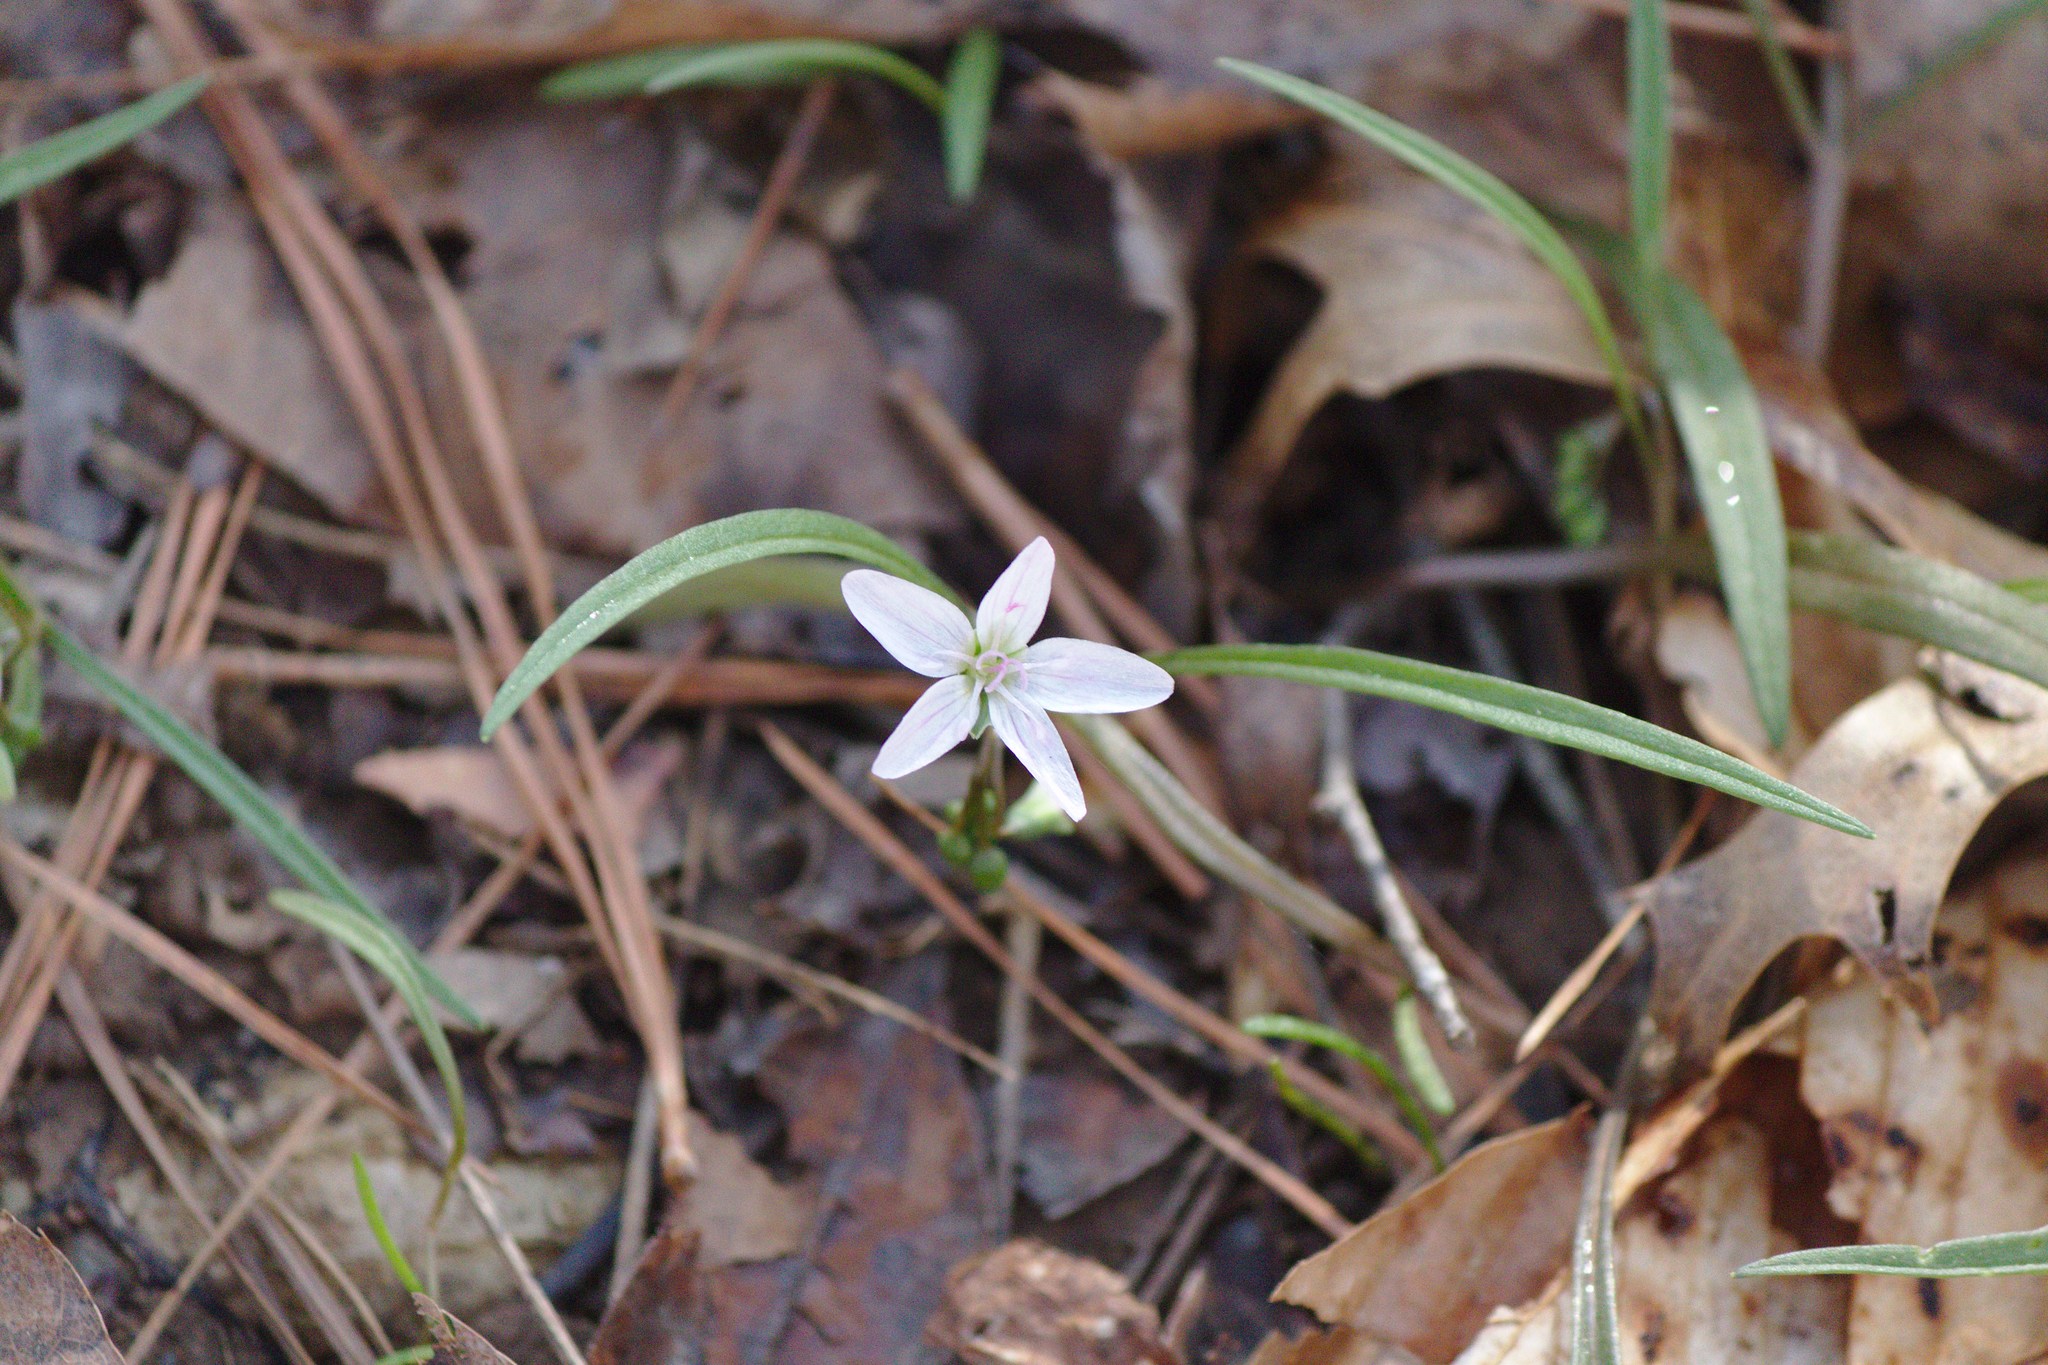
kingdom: Plantae
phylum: Tracheophyta
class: Magnoliopsida
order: Caryophyllales
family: Montiaceae
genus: Claytonia
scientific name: Claytonia virginica
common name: Virginia springbeauty
